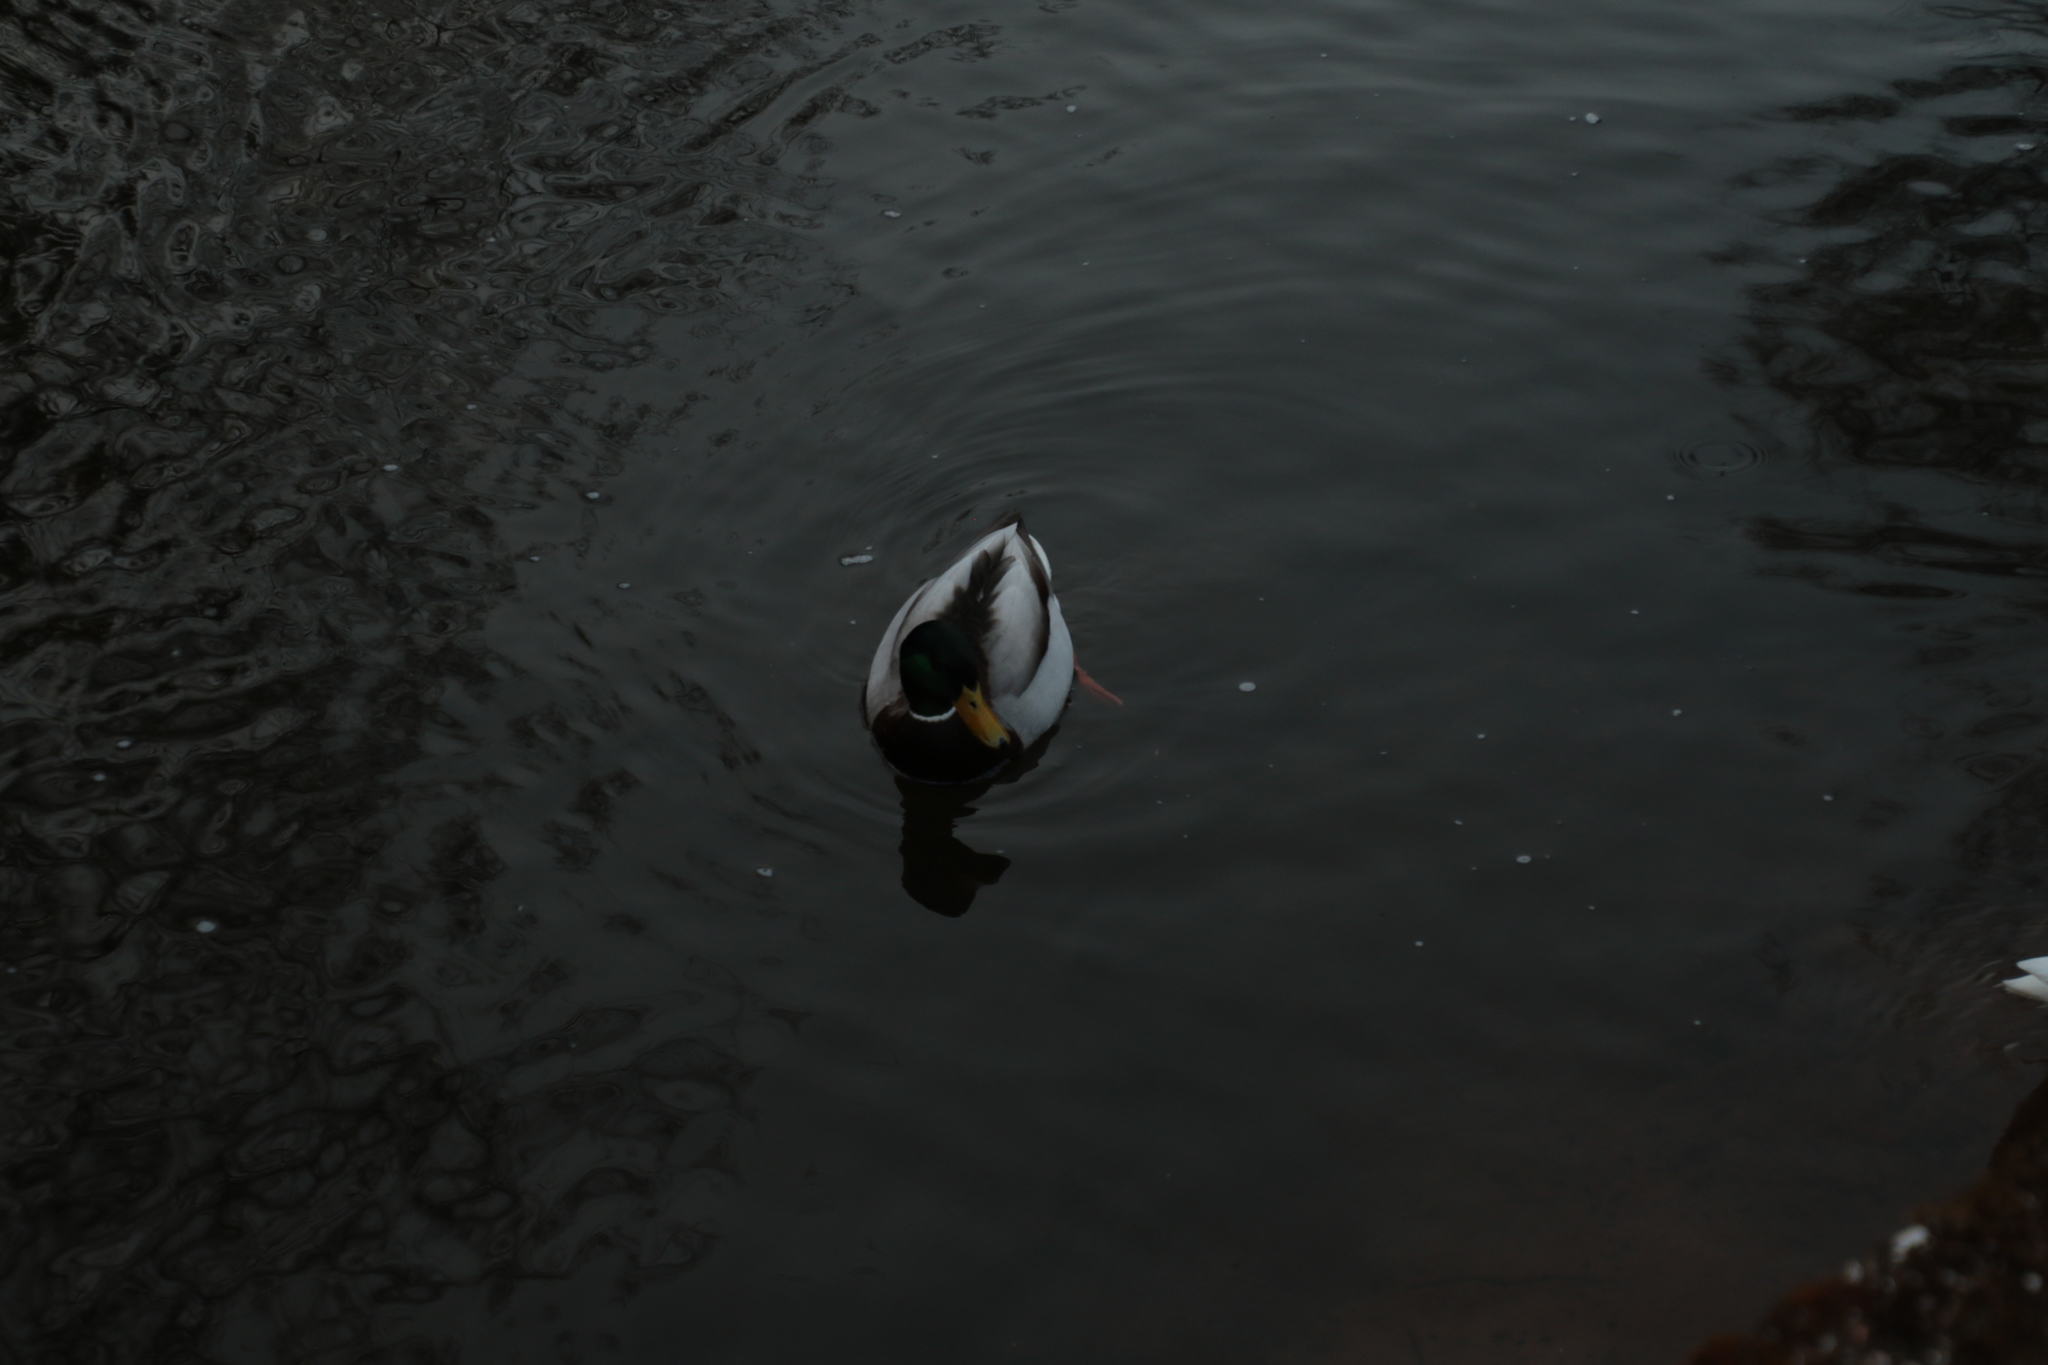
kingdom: Animalia
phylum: Chordata
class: Aves
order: Anseriformes
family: Anatidae
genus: Anas
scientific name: Anas platyrhynchos
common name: Mallard
